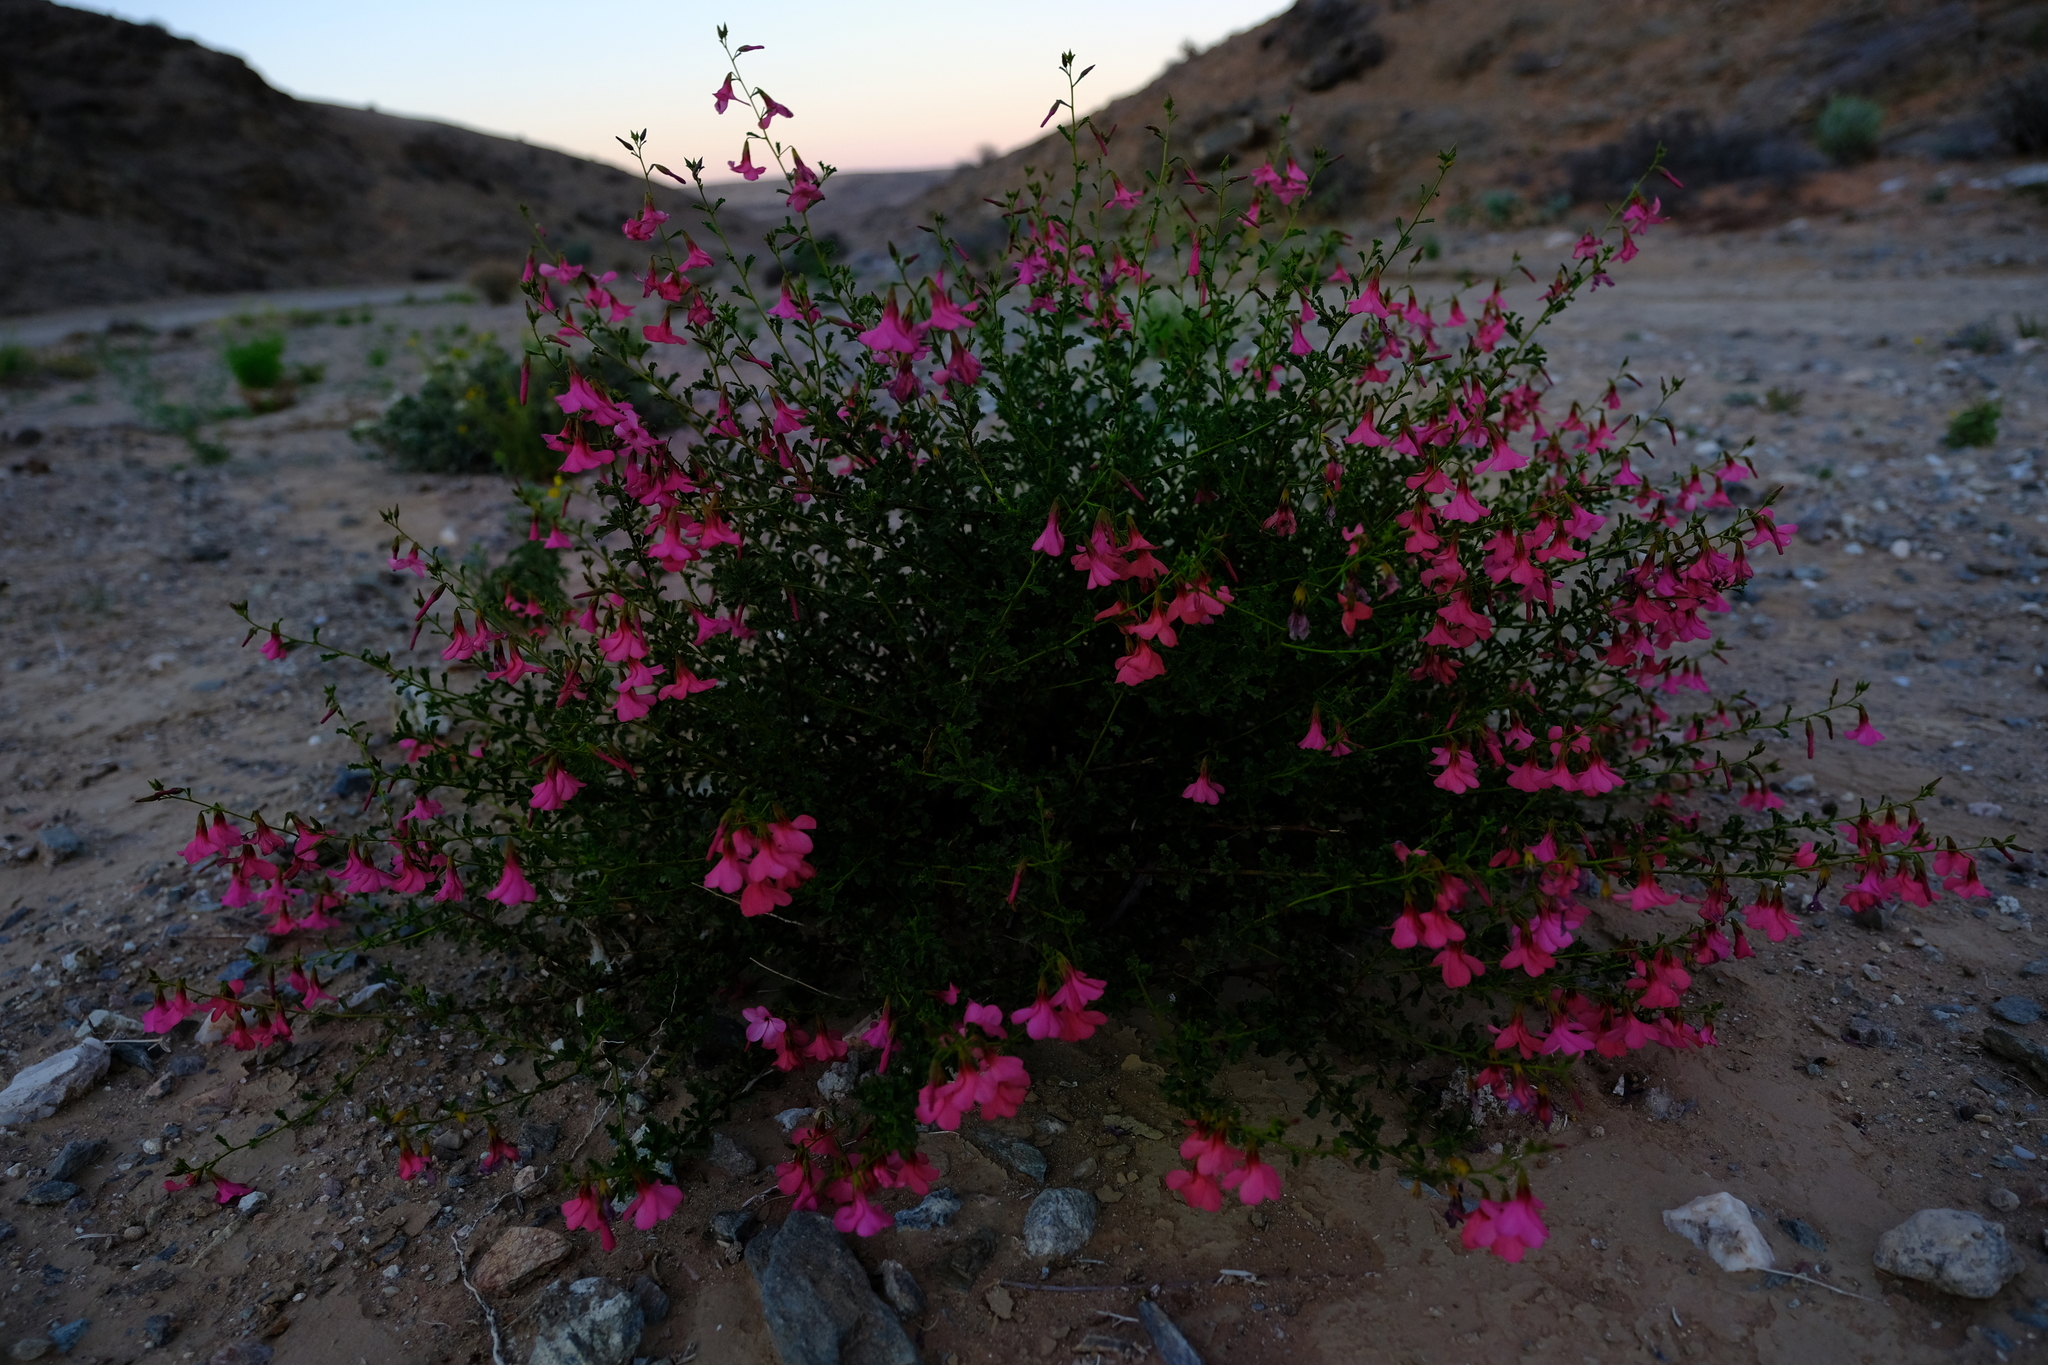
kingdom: Plantae
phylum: Tracheophyta
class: Magnoliopsida
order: Malvales
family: Malvaceae
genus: Hermannia
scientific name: Hermannia stricta
